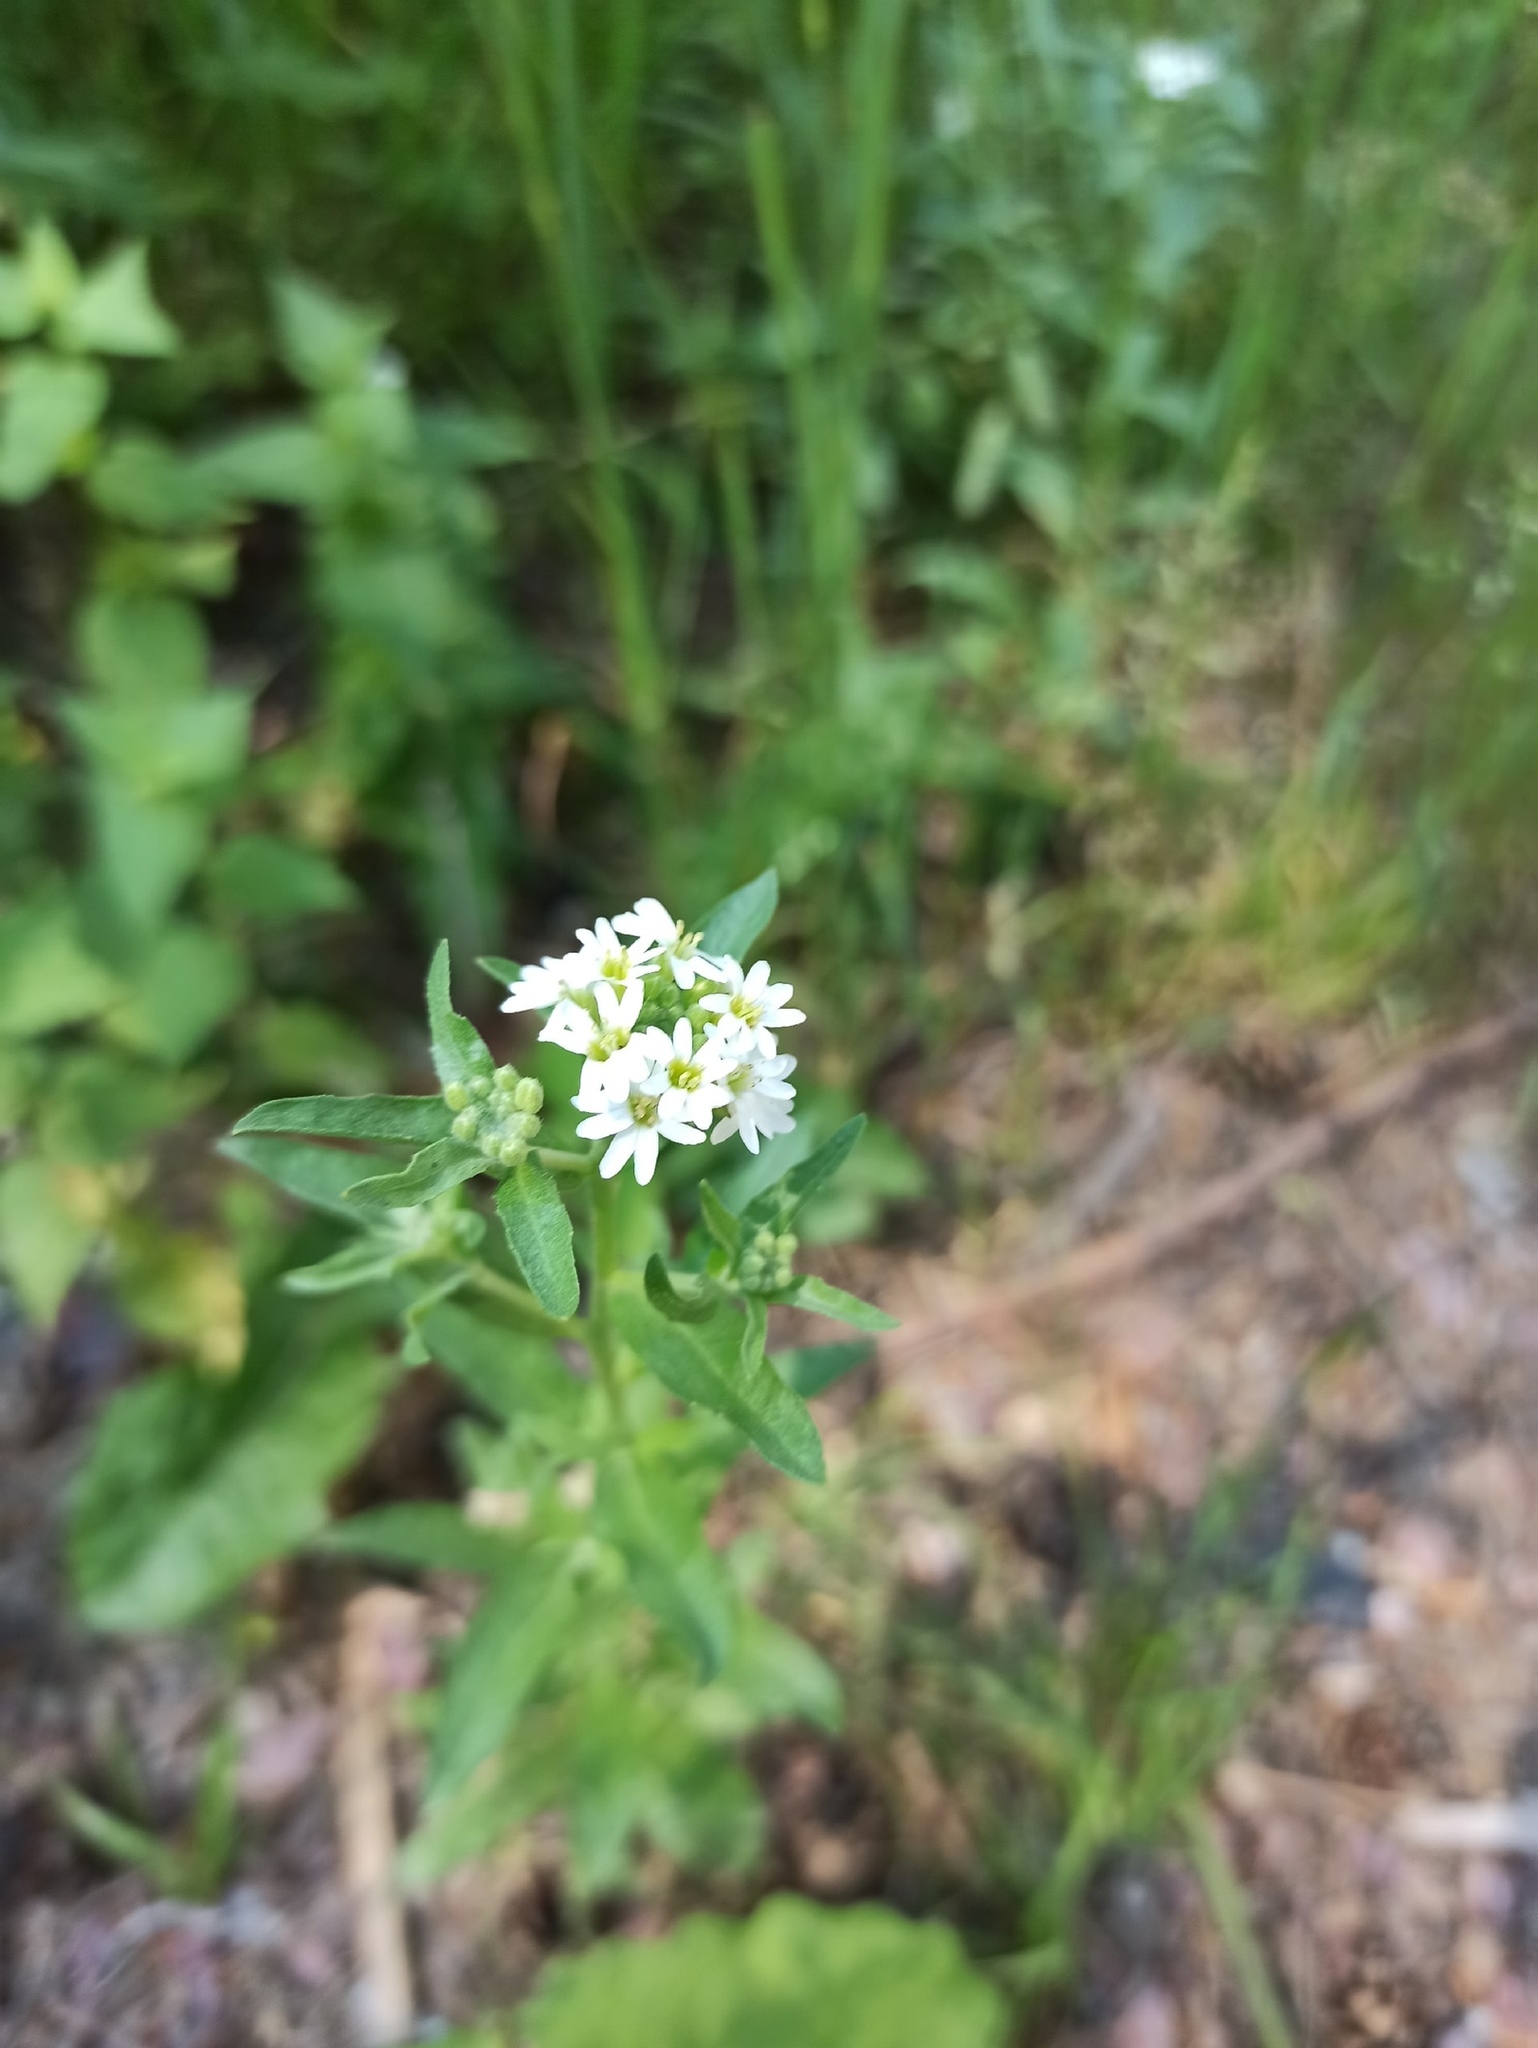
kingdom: Plantae
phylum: Tracheophyta
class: Magnoliopsida
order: Brassicales
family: Brassicaceae
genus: Berteroa
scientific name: Berteroa incana
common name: Hoary alison
